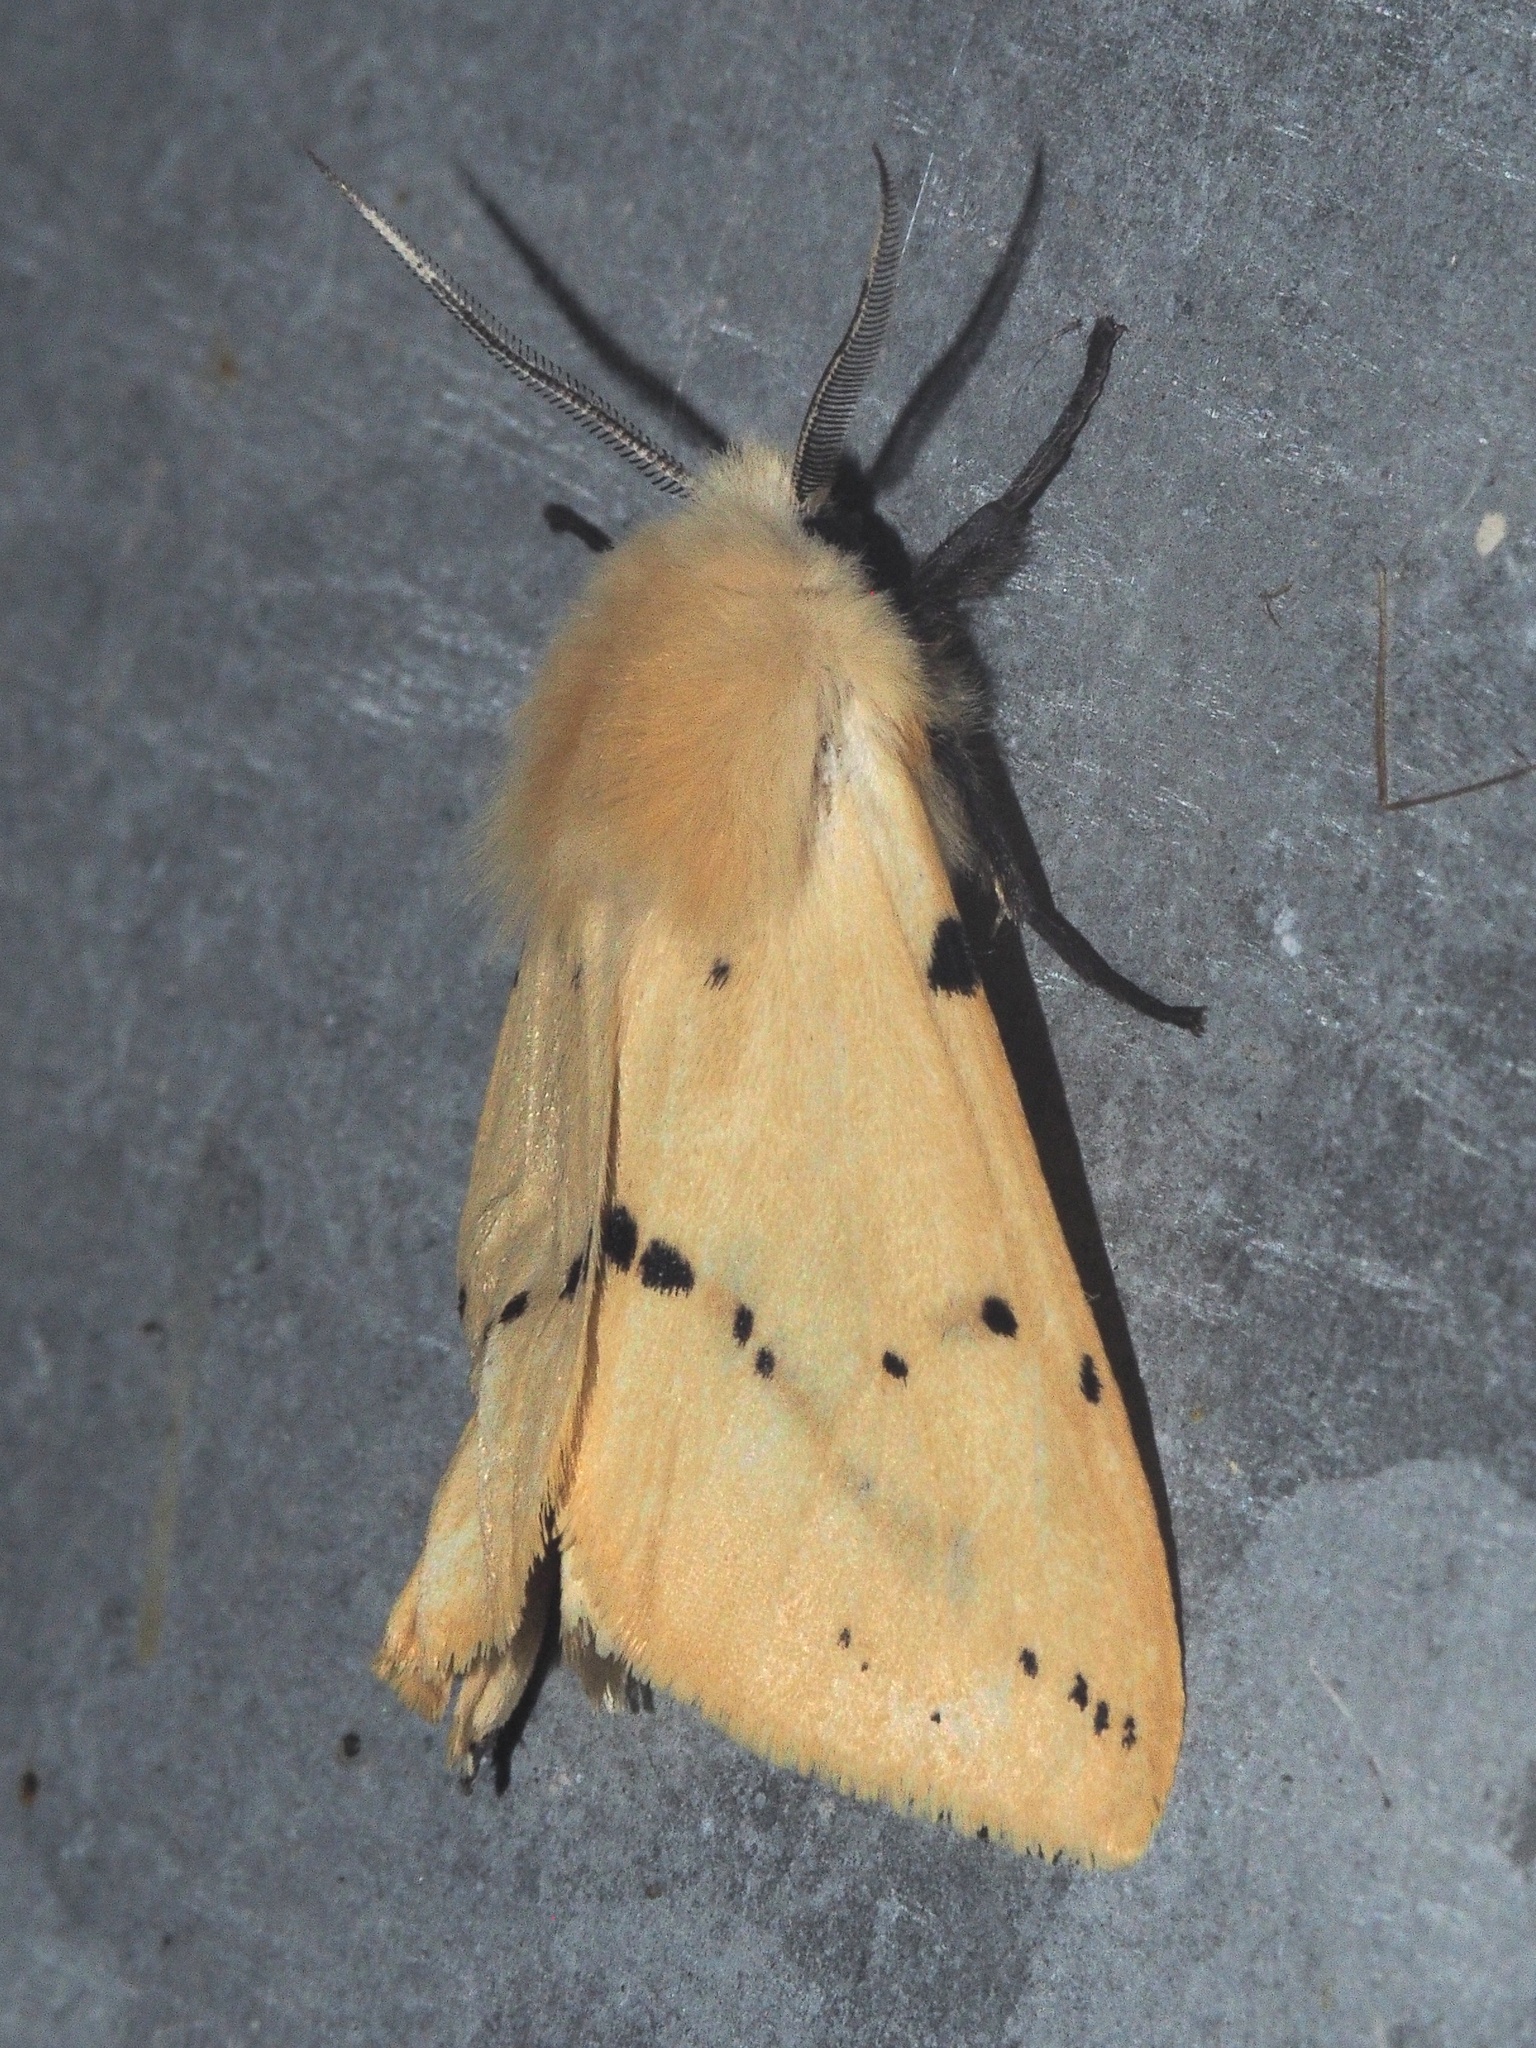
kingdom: Animalia
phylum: Arthropoda
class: Insecta
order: Lepidoptera
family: Erebidae
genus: Spilarctia
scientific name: Spilarctia lutea
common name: Buff ermine
